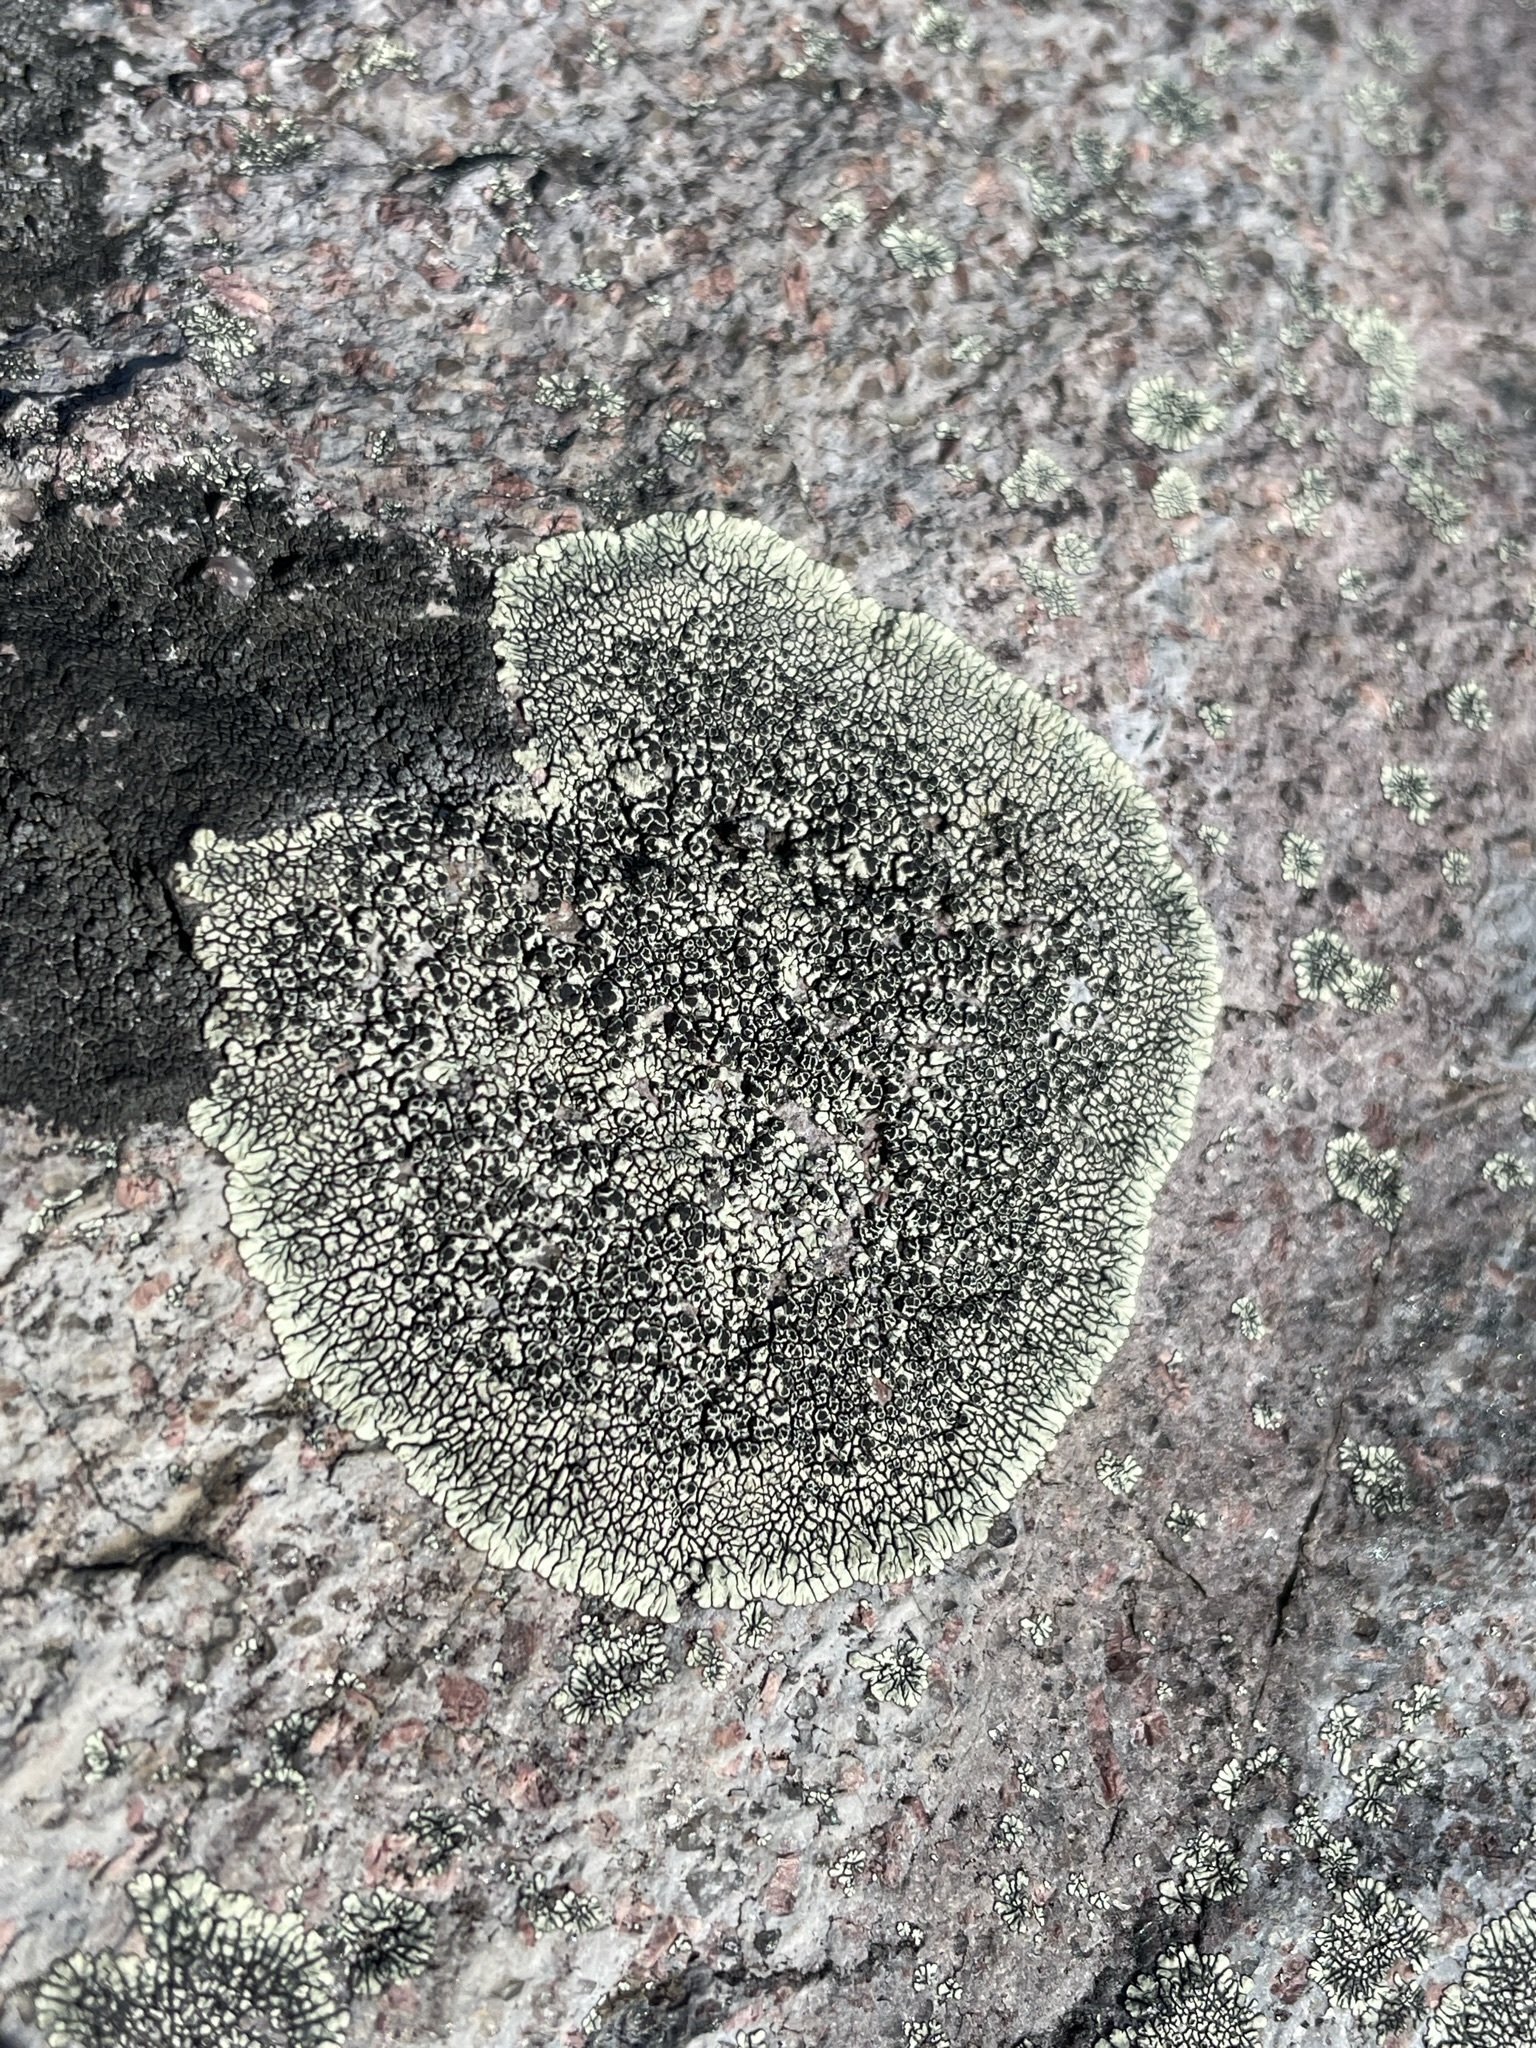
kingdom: Fungi
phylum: Ascomycota
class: Lecanoromycetes
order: Caliciales
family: Caliciaceae
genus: Dimelaena
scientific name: Dimelaena oreina
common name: Golden moonglow lichen
